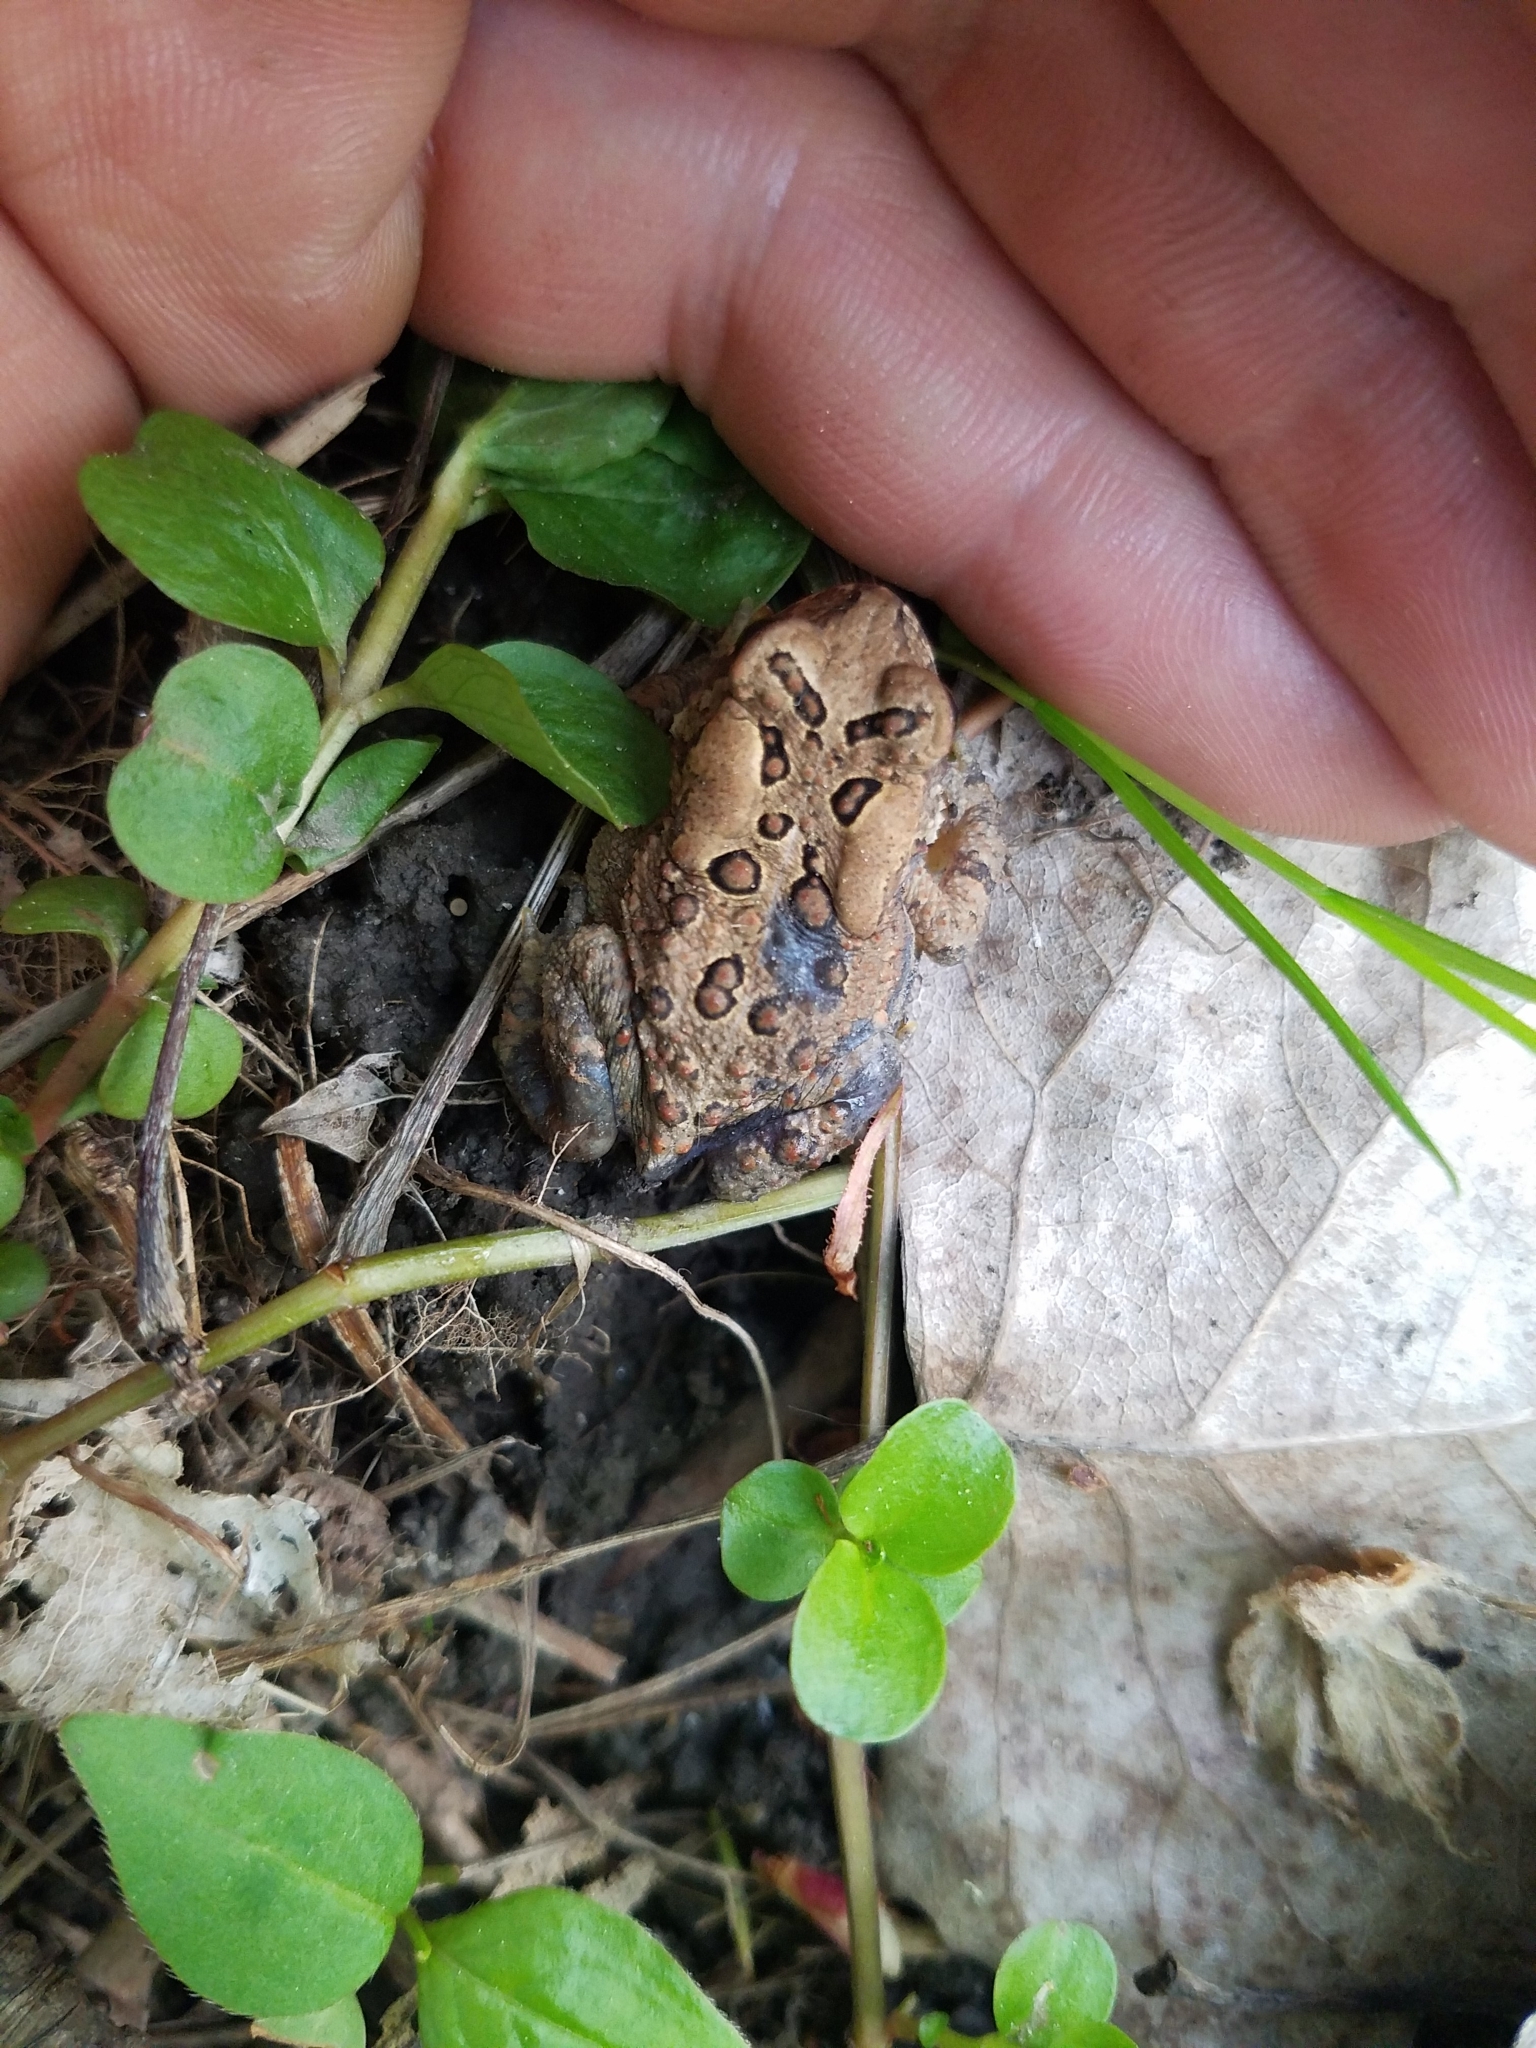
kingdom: Animalia
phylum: Chordata
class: Amphibia
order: Anura
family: Bufonidae
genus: Anaxyrus
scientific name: Anaxyrus americanus
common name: American toad
